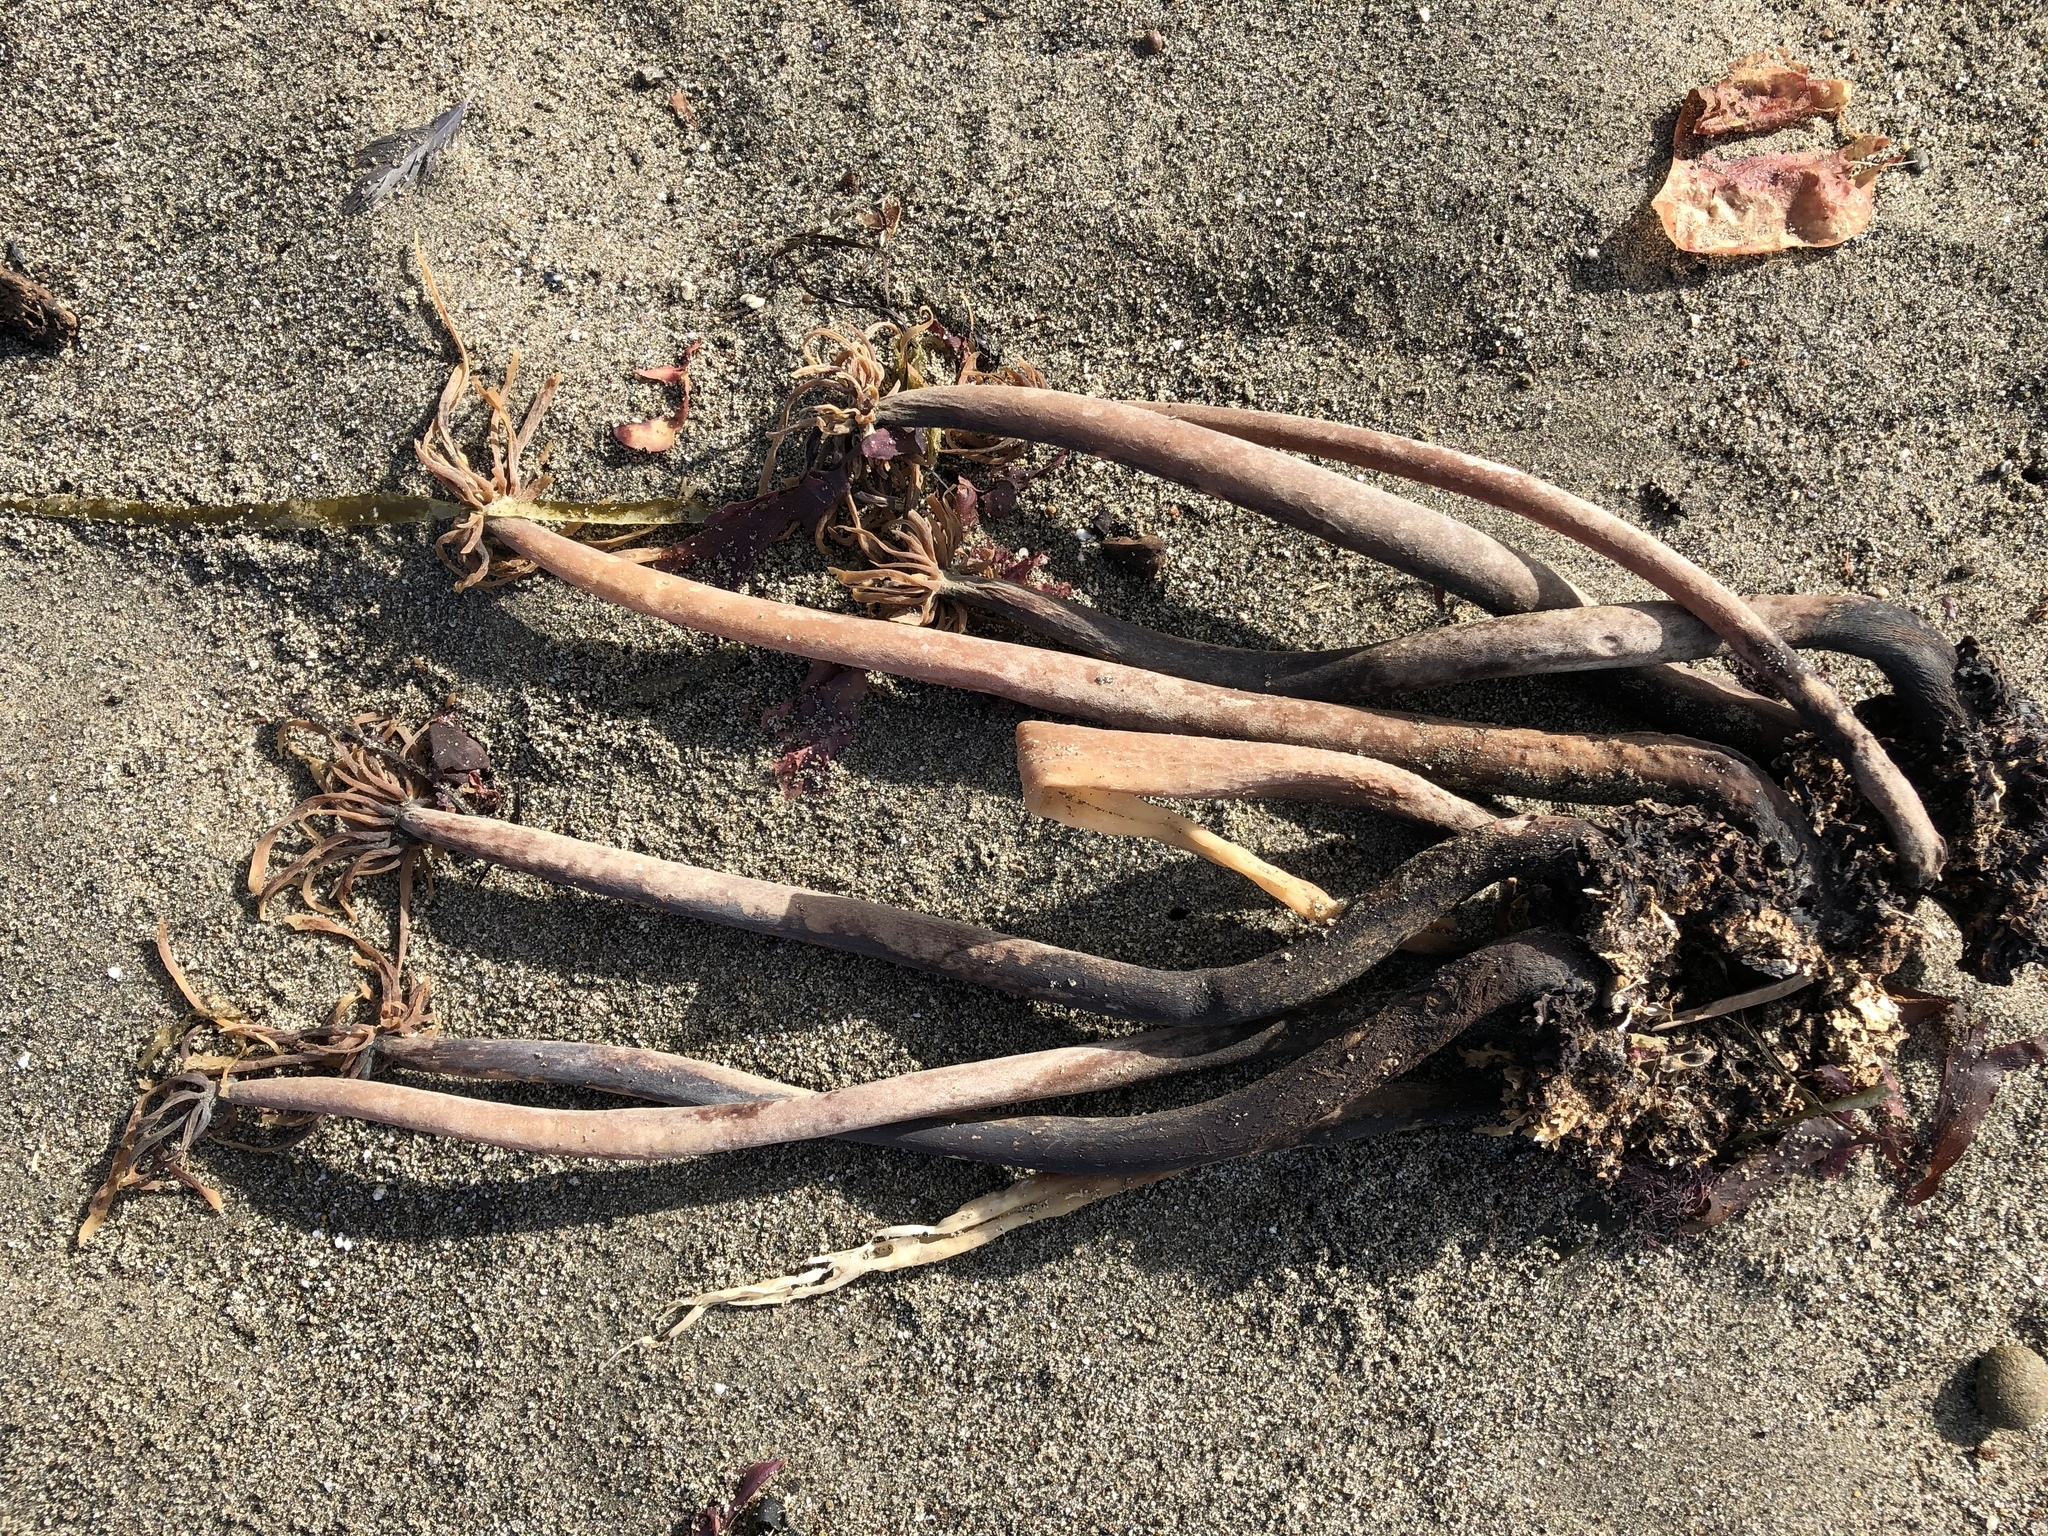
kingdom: Chromista
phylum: Ochrophyta
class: Phaeophyceae
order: Laminariales
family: Laminariaceae
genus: Postelsia
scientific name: Postelsia palmiformis
